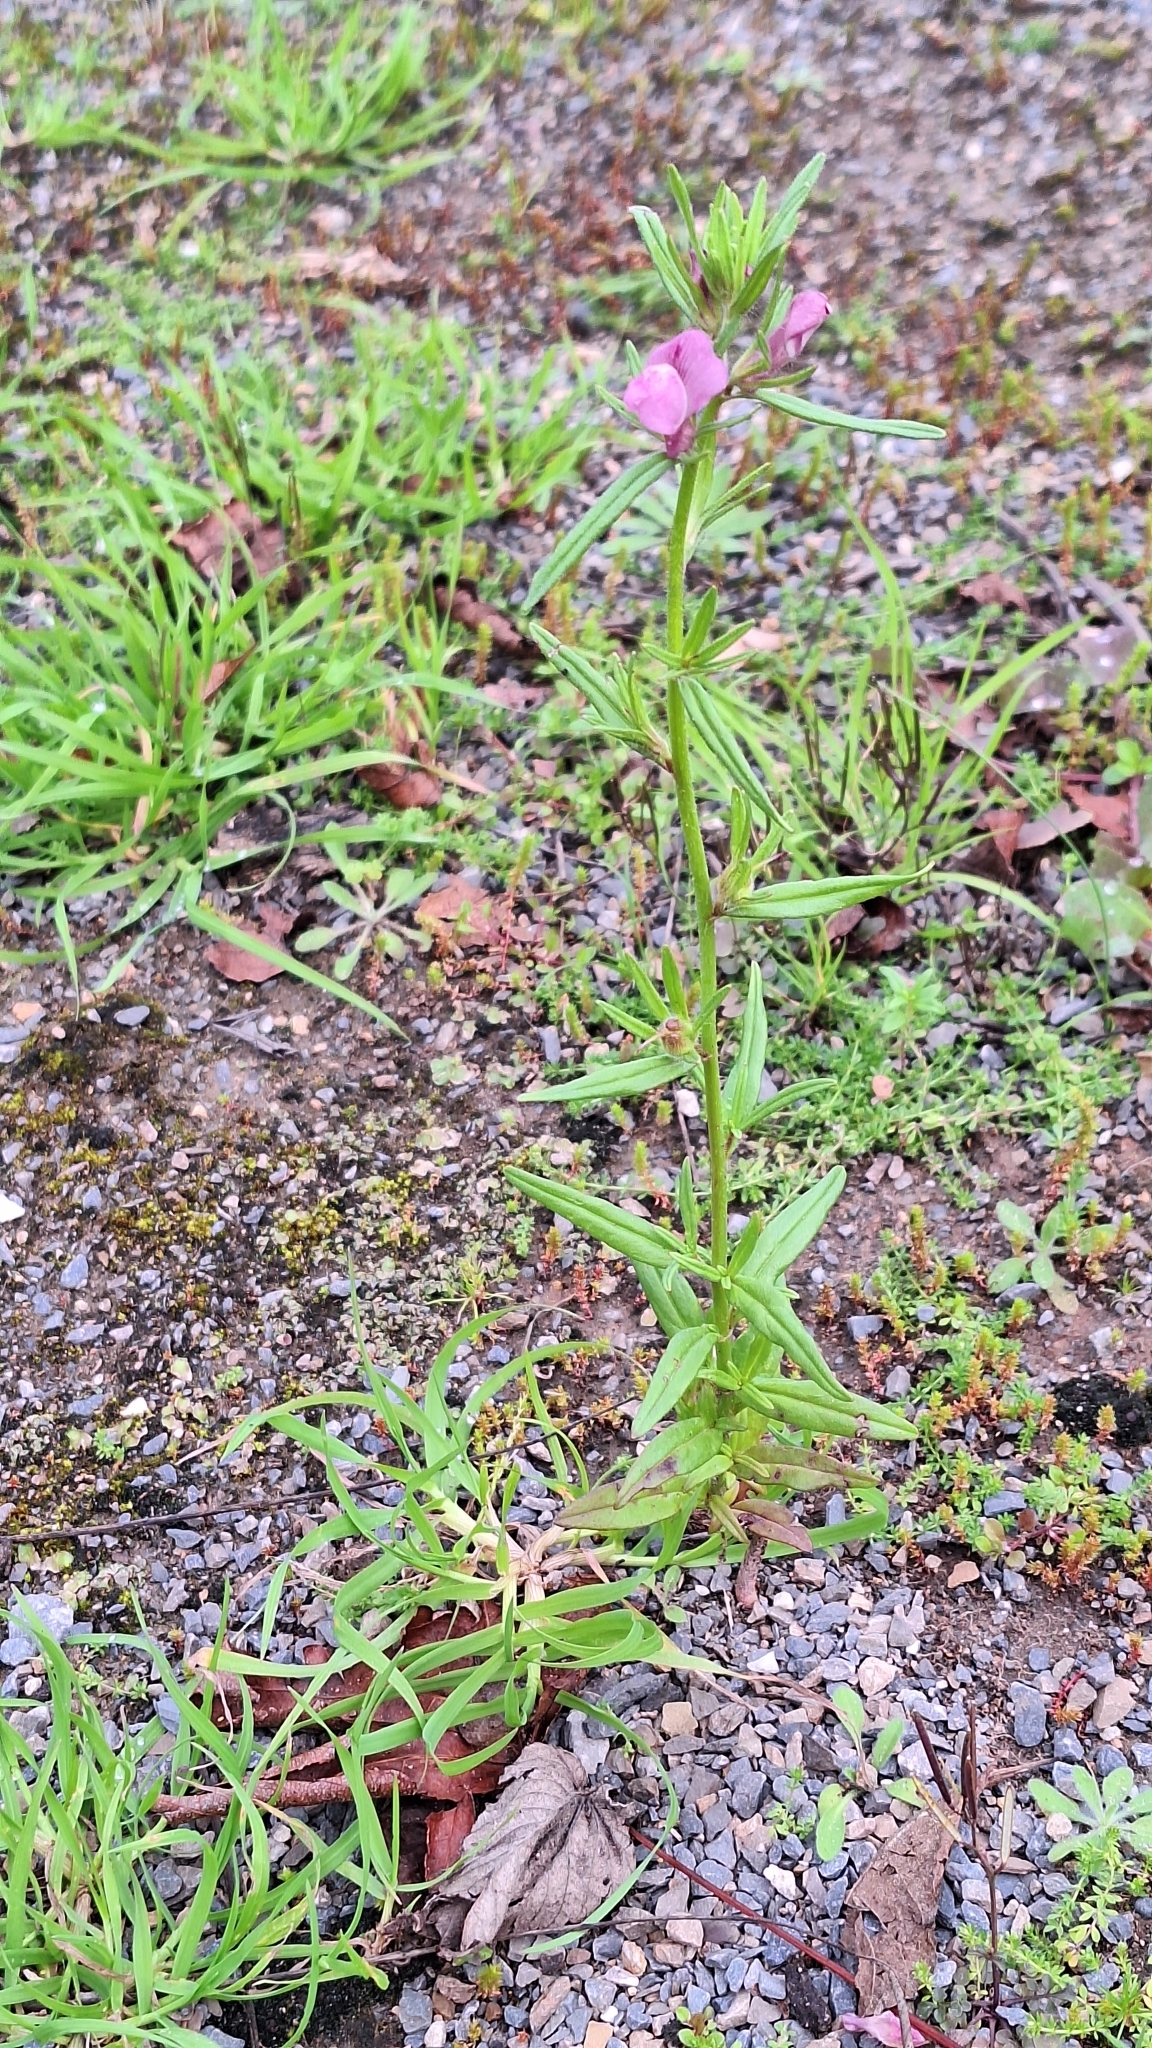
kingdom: Plantae
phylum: Tracheophyta
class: Magnoliopsida
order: Lamiales
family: Plantaginaceae
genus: Misopates
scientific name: Misopates orontium
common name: Weasel's-snout
